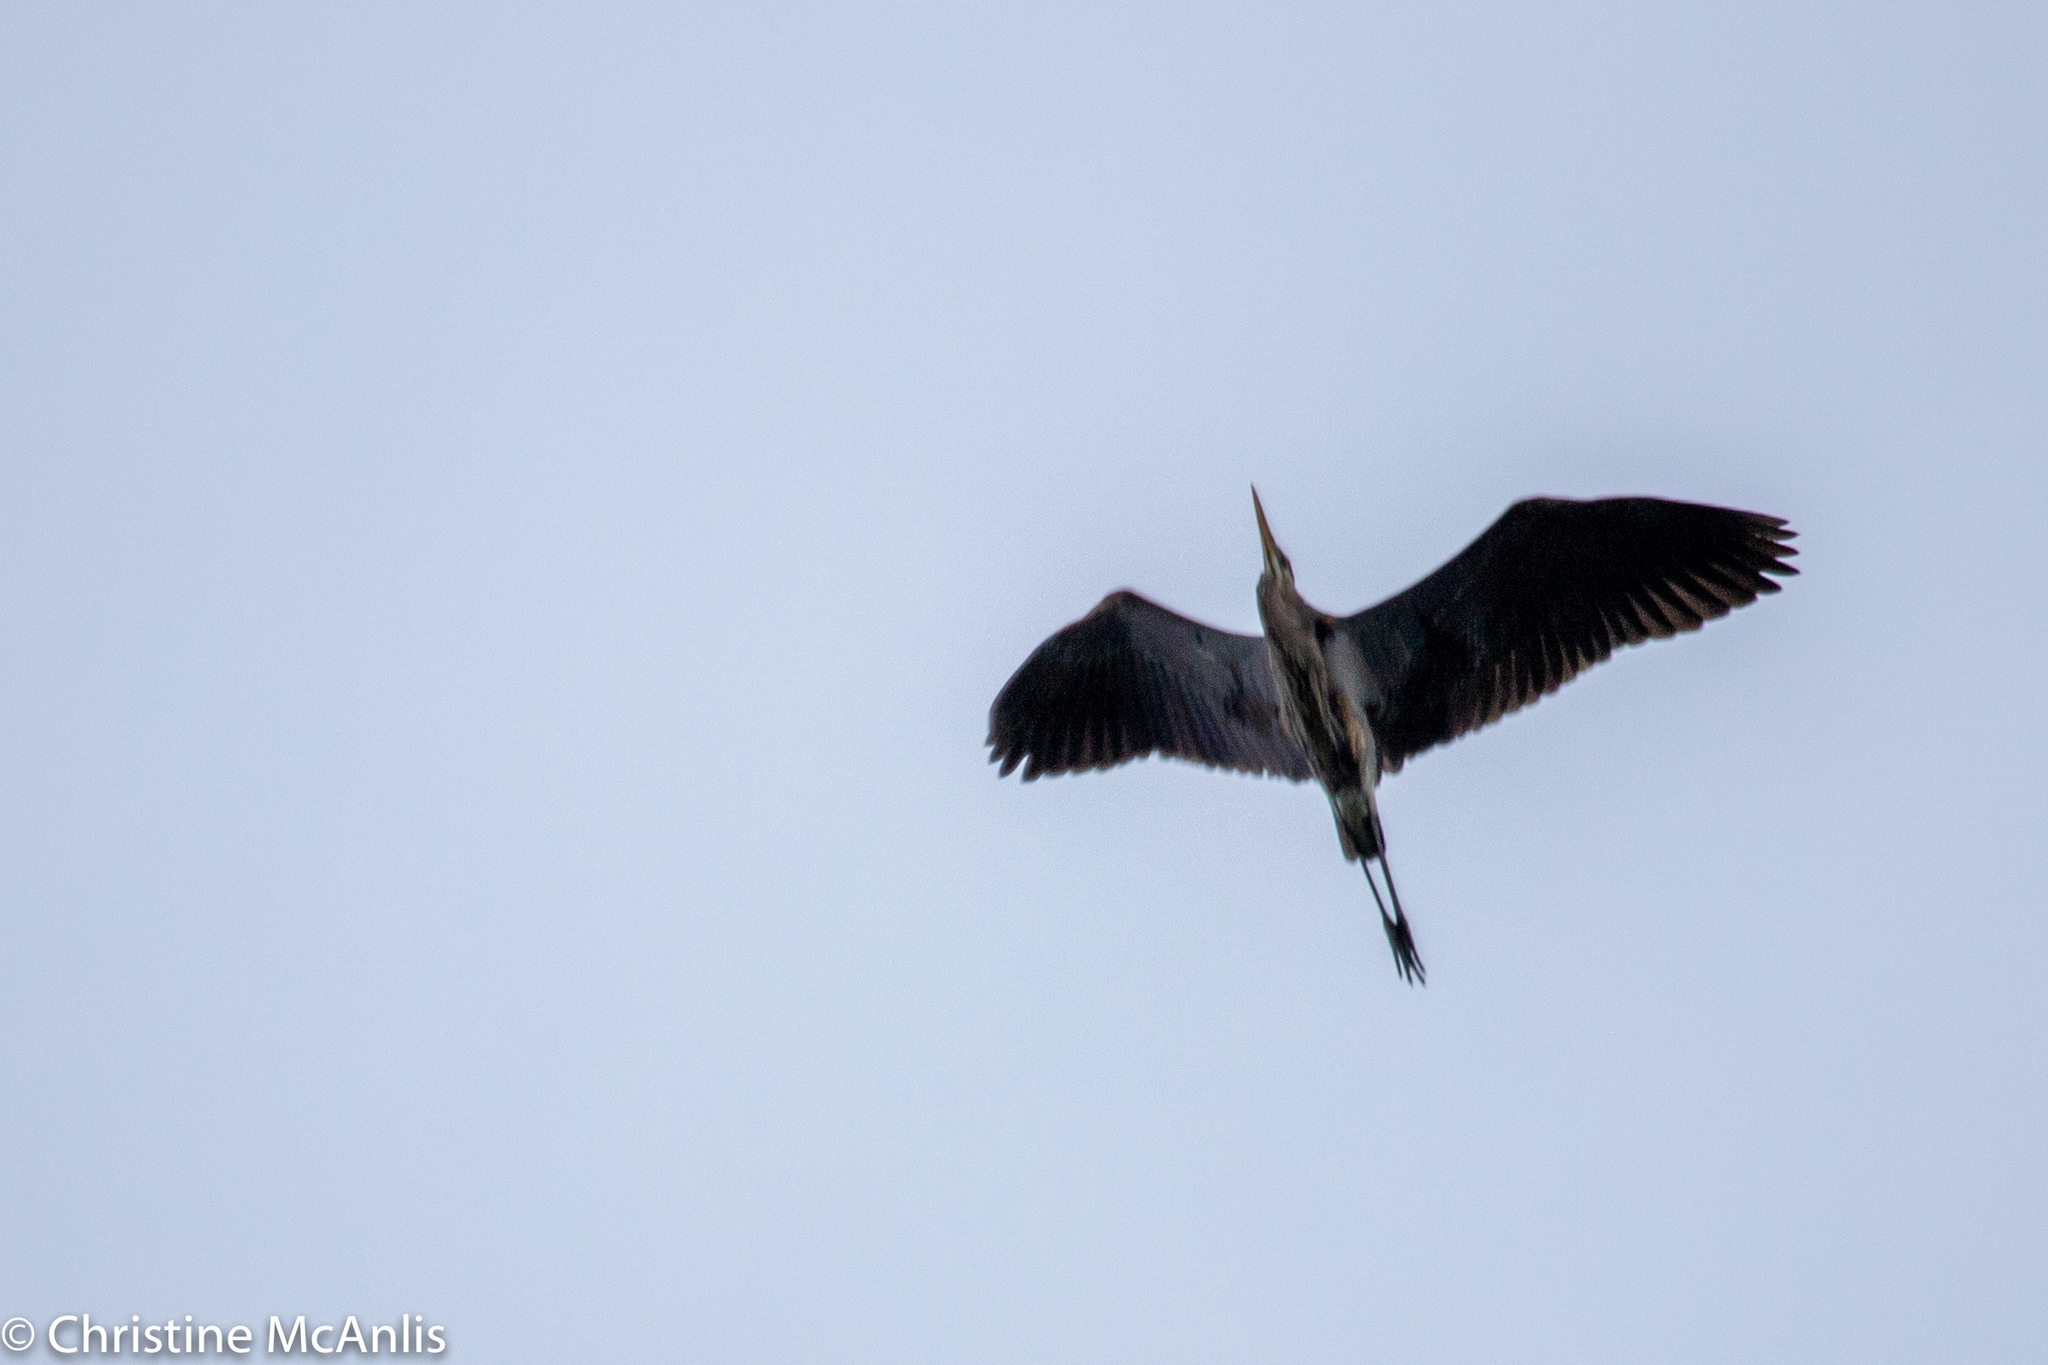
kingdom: Animalia
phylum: Chordata
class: Aves
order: Pelecaniformes
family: Ardeidae
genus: Ardea
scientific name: Ardea herodias
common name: Great blue heron
